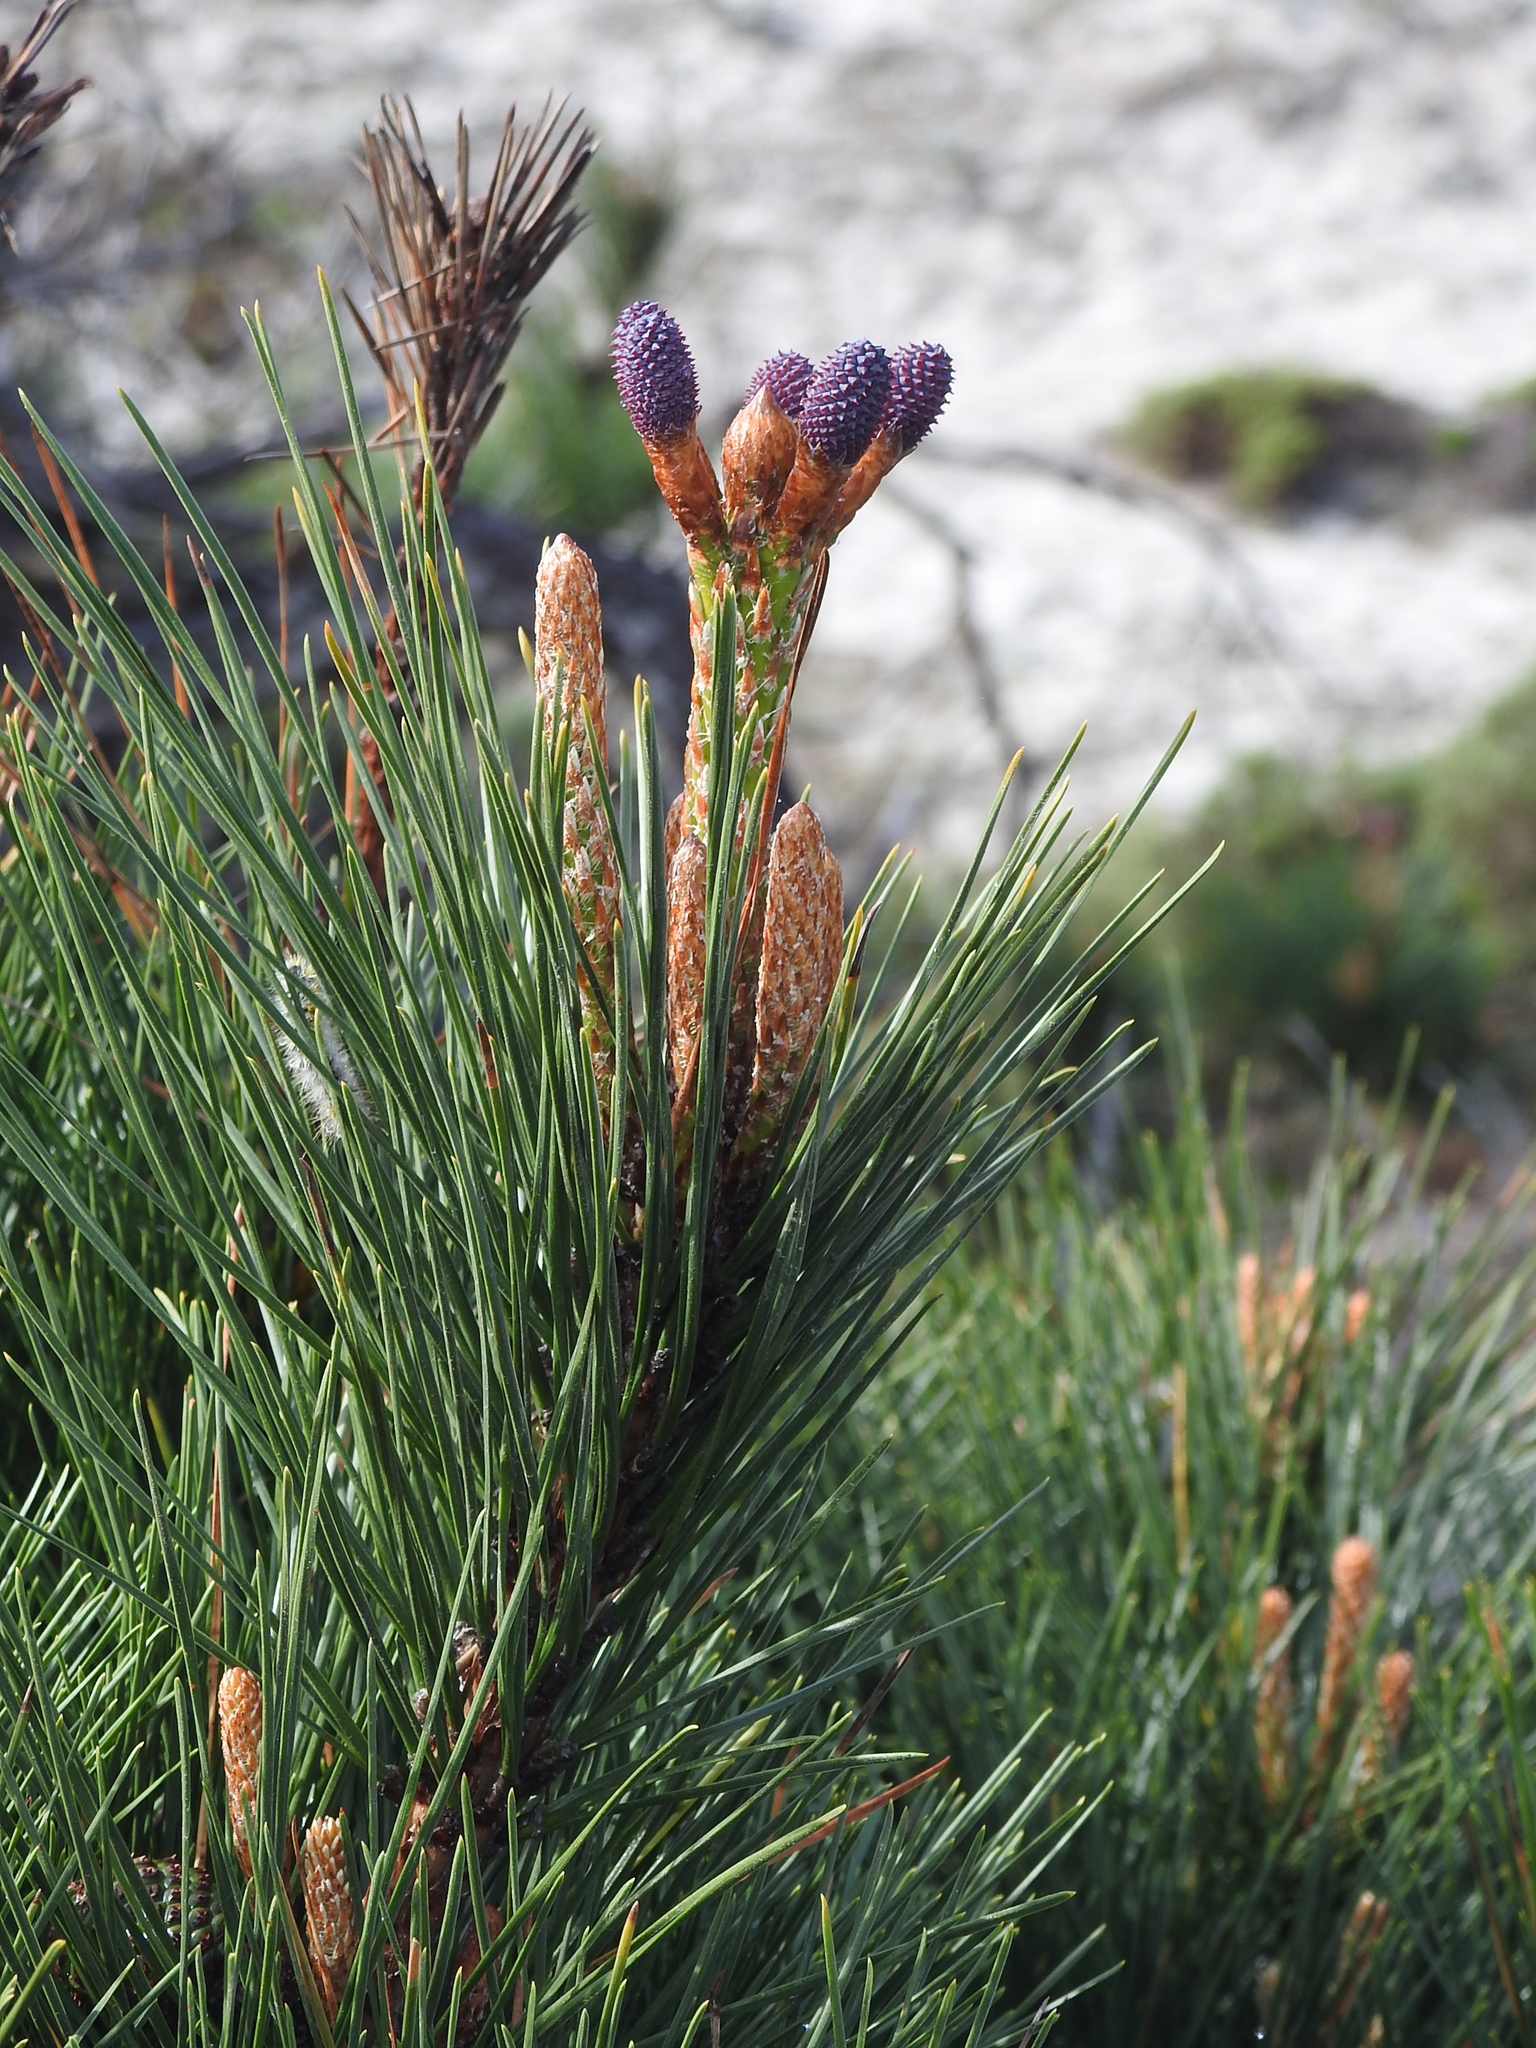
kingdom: Plantae
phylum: Tracheophyta
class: Pinopsida
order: Pinales
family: Pinaceae
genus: Pinus
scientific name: Pinus radiata
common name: Monterey pine
